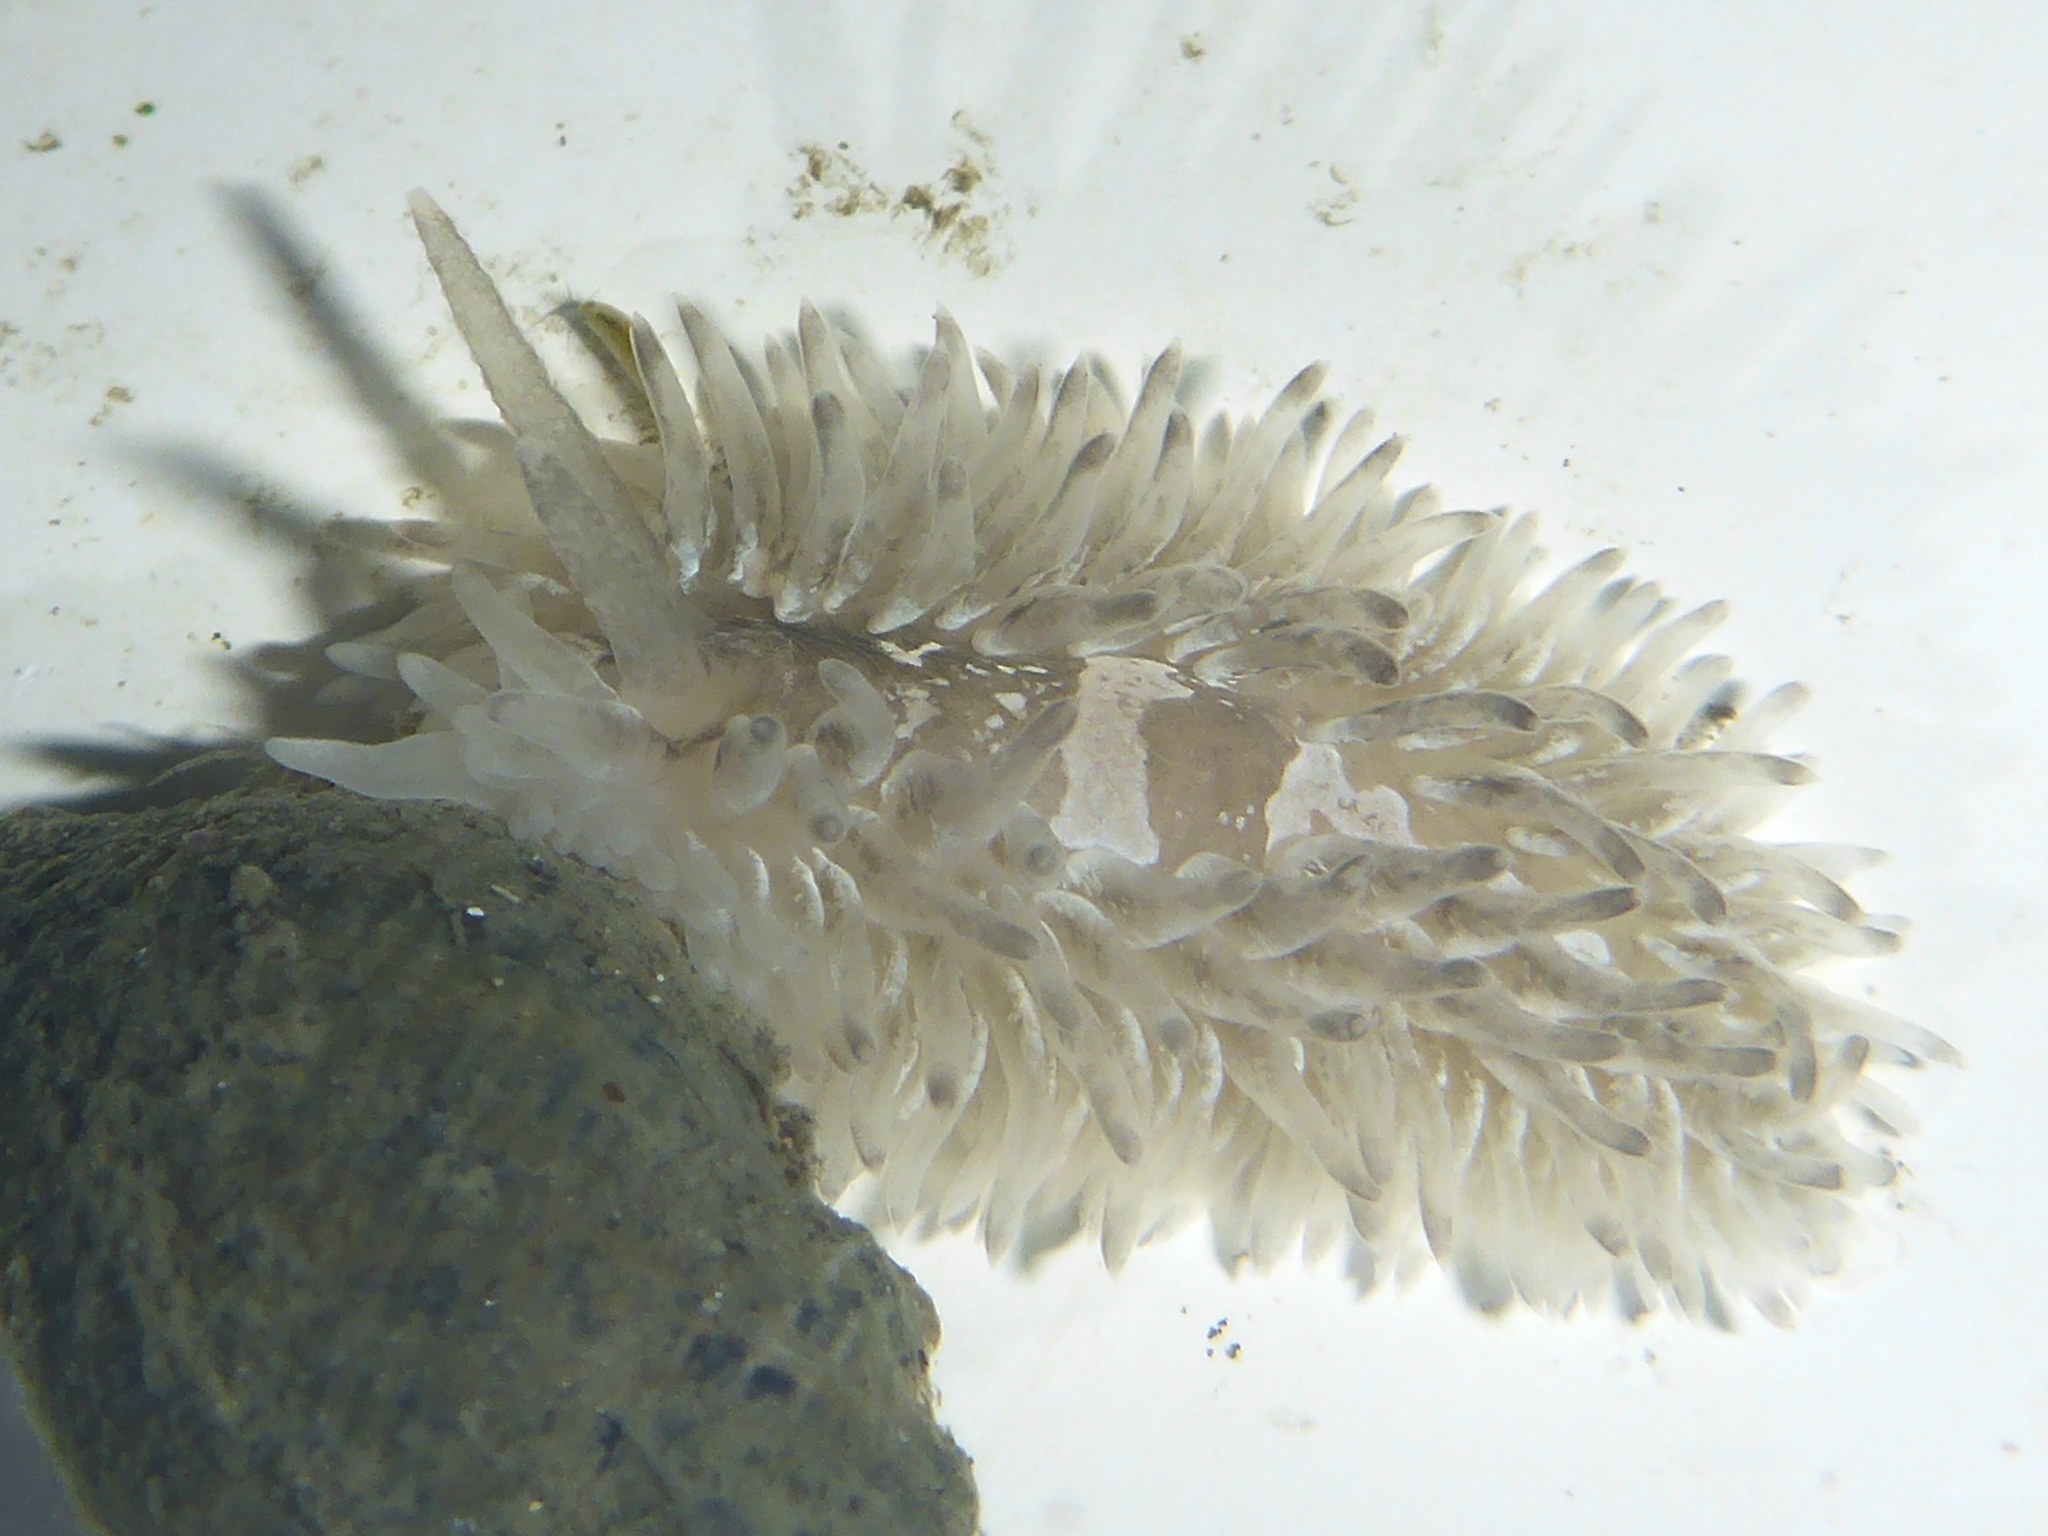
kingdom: Animalia
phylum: Mollusca
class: Gastropoda
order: Nudibranchia
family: Aeolidiidae
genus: Aeolidia
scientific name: Aeolidia loui
